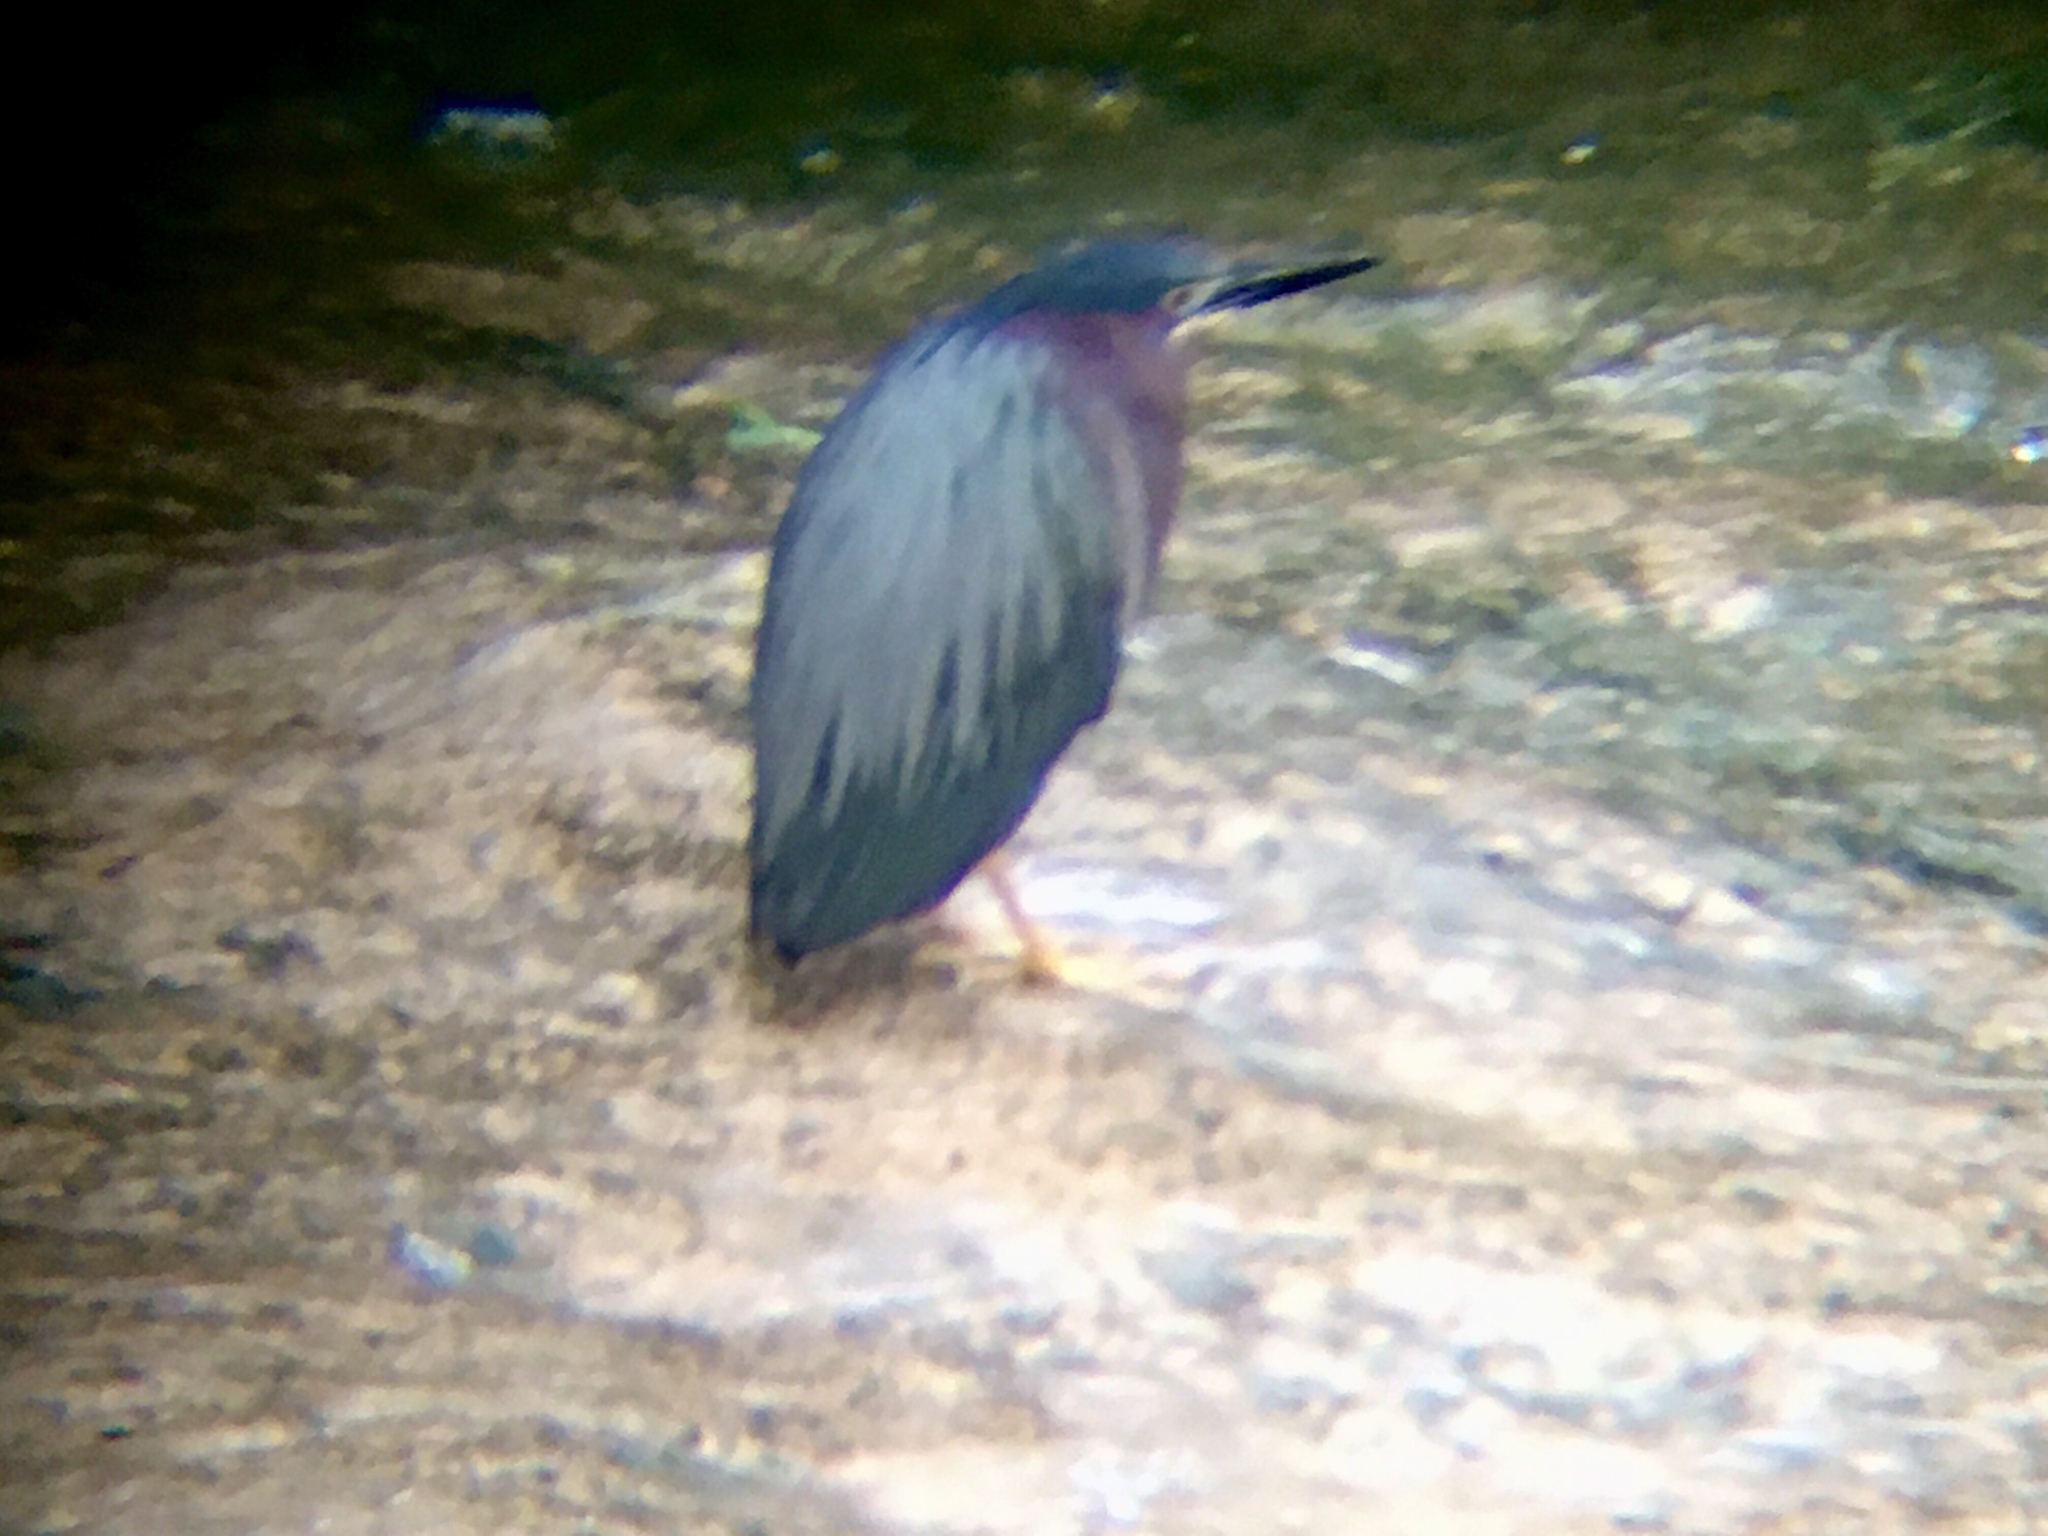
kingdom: Animalia
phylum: Chordata
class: Aves
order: Pelecaniformes
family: Ardeidae
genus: Butorides
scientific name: Butorides virescens
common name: Green heron
